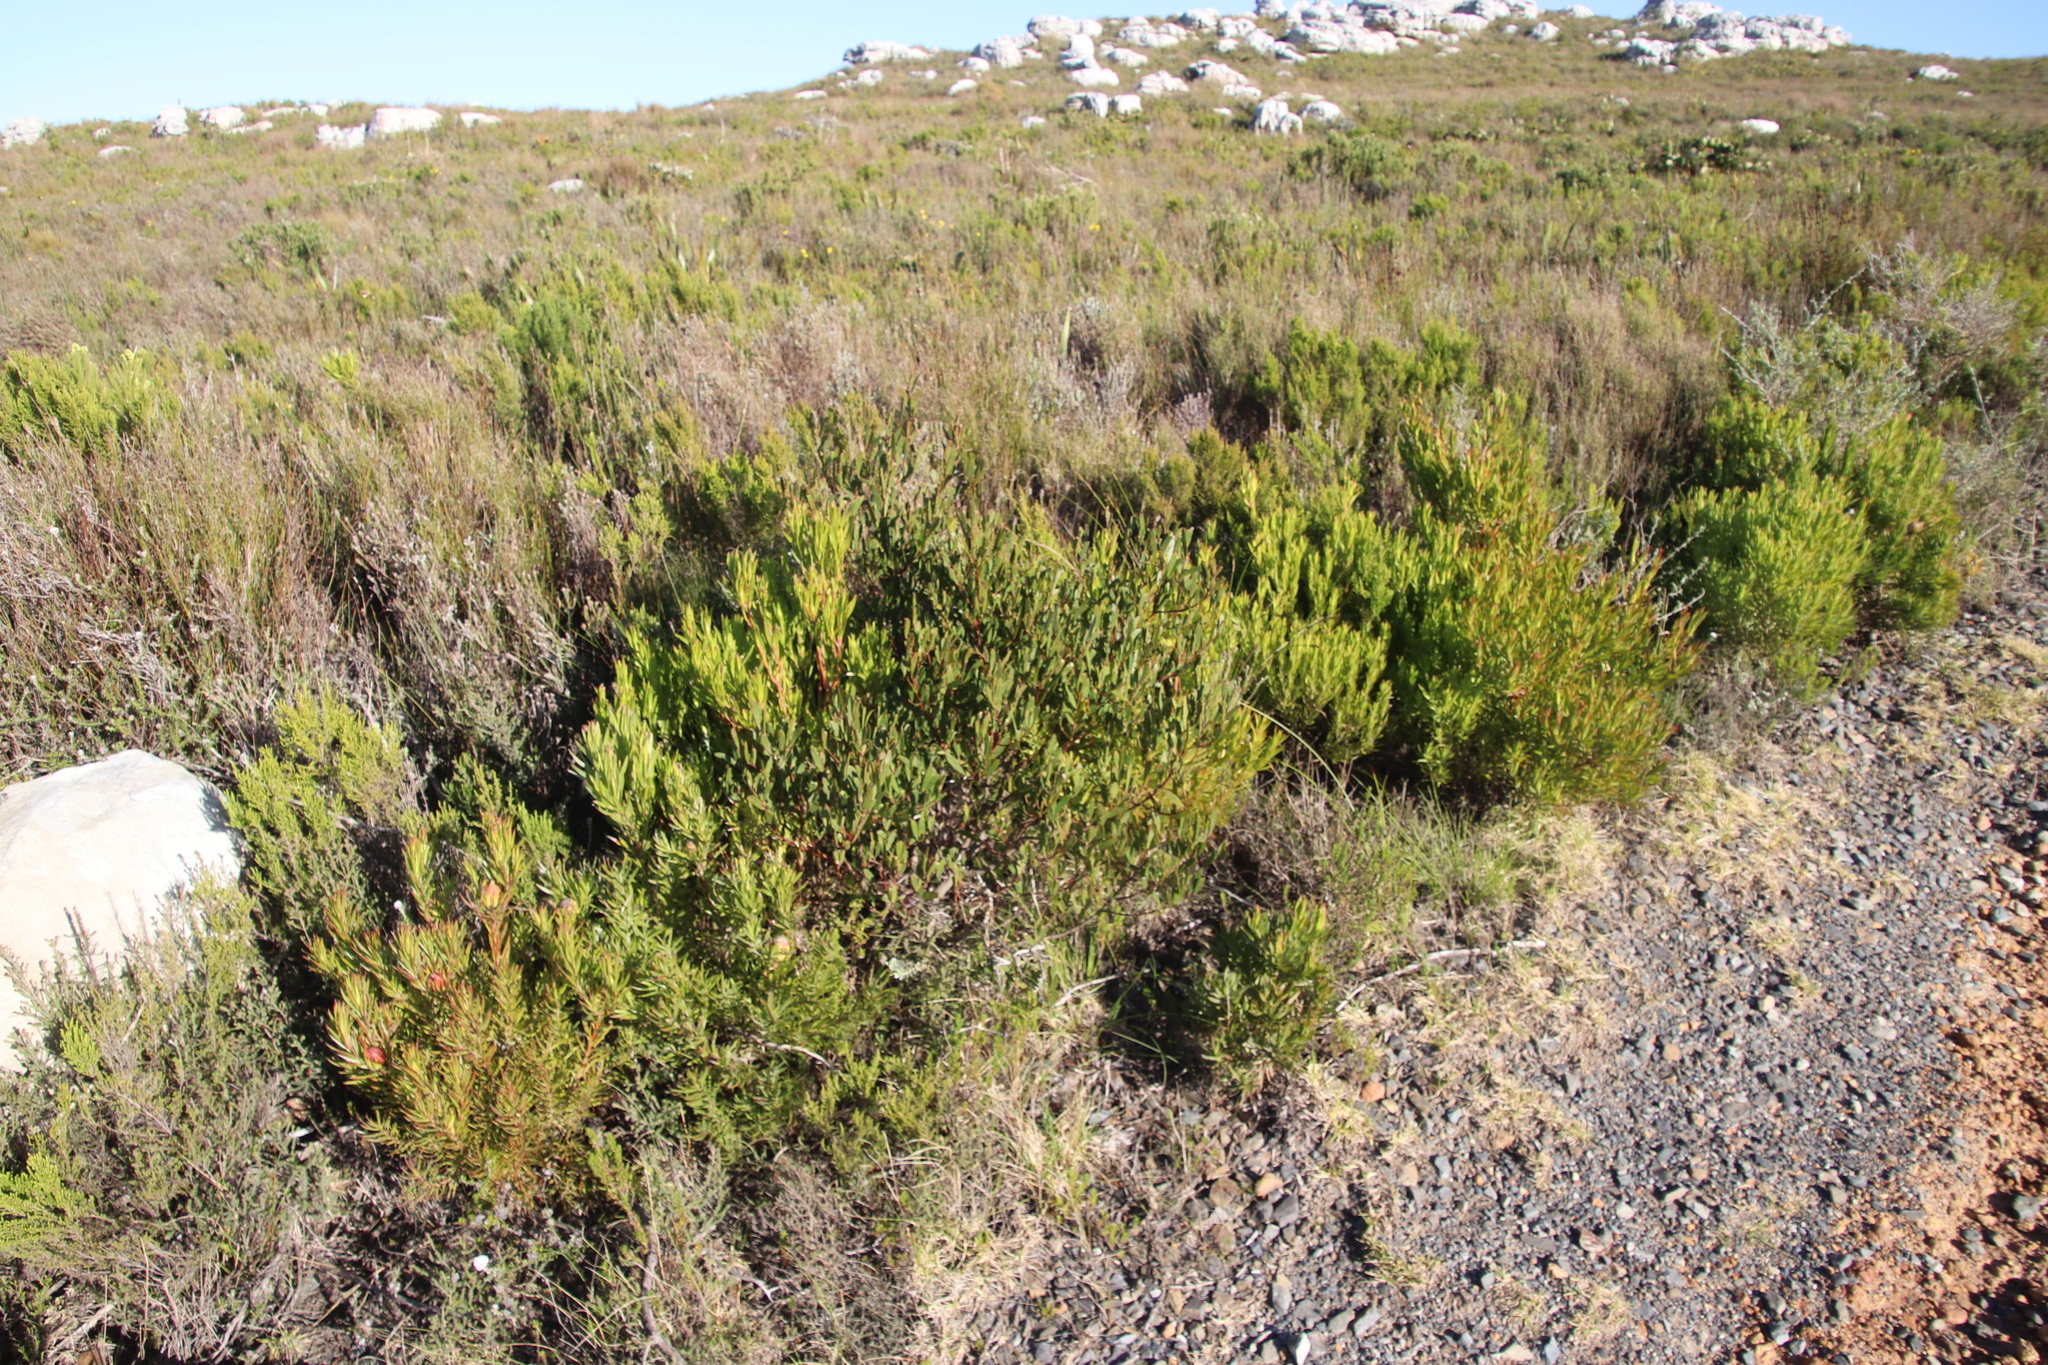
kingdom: Plantae
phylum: Tracheophyta
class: Magnoliopsida
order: Fabales
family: Fabaceae
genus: Acacia
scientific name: Acacia cyclops
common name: Coastal wattle
